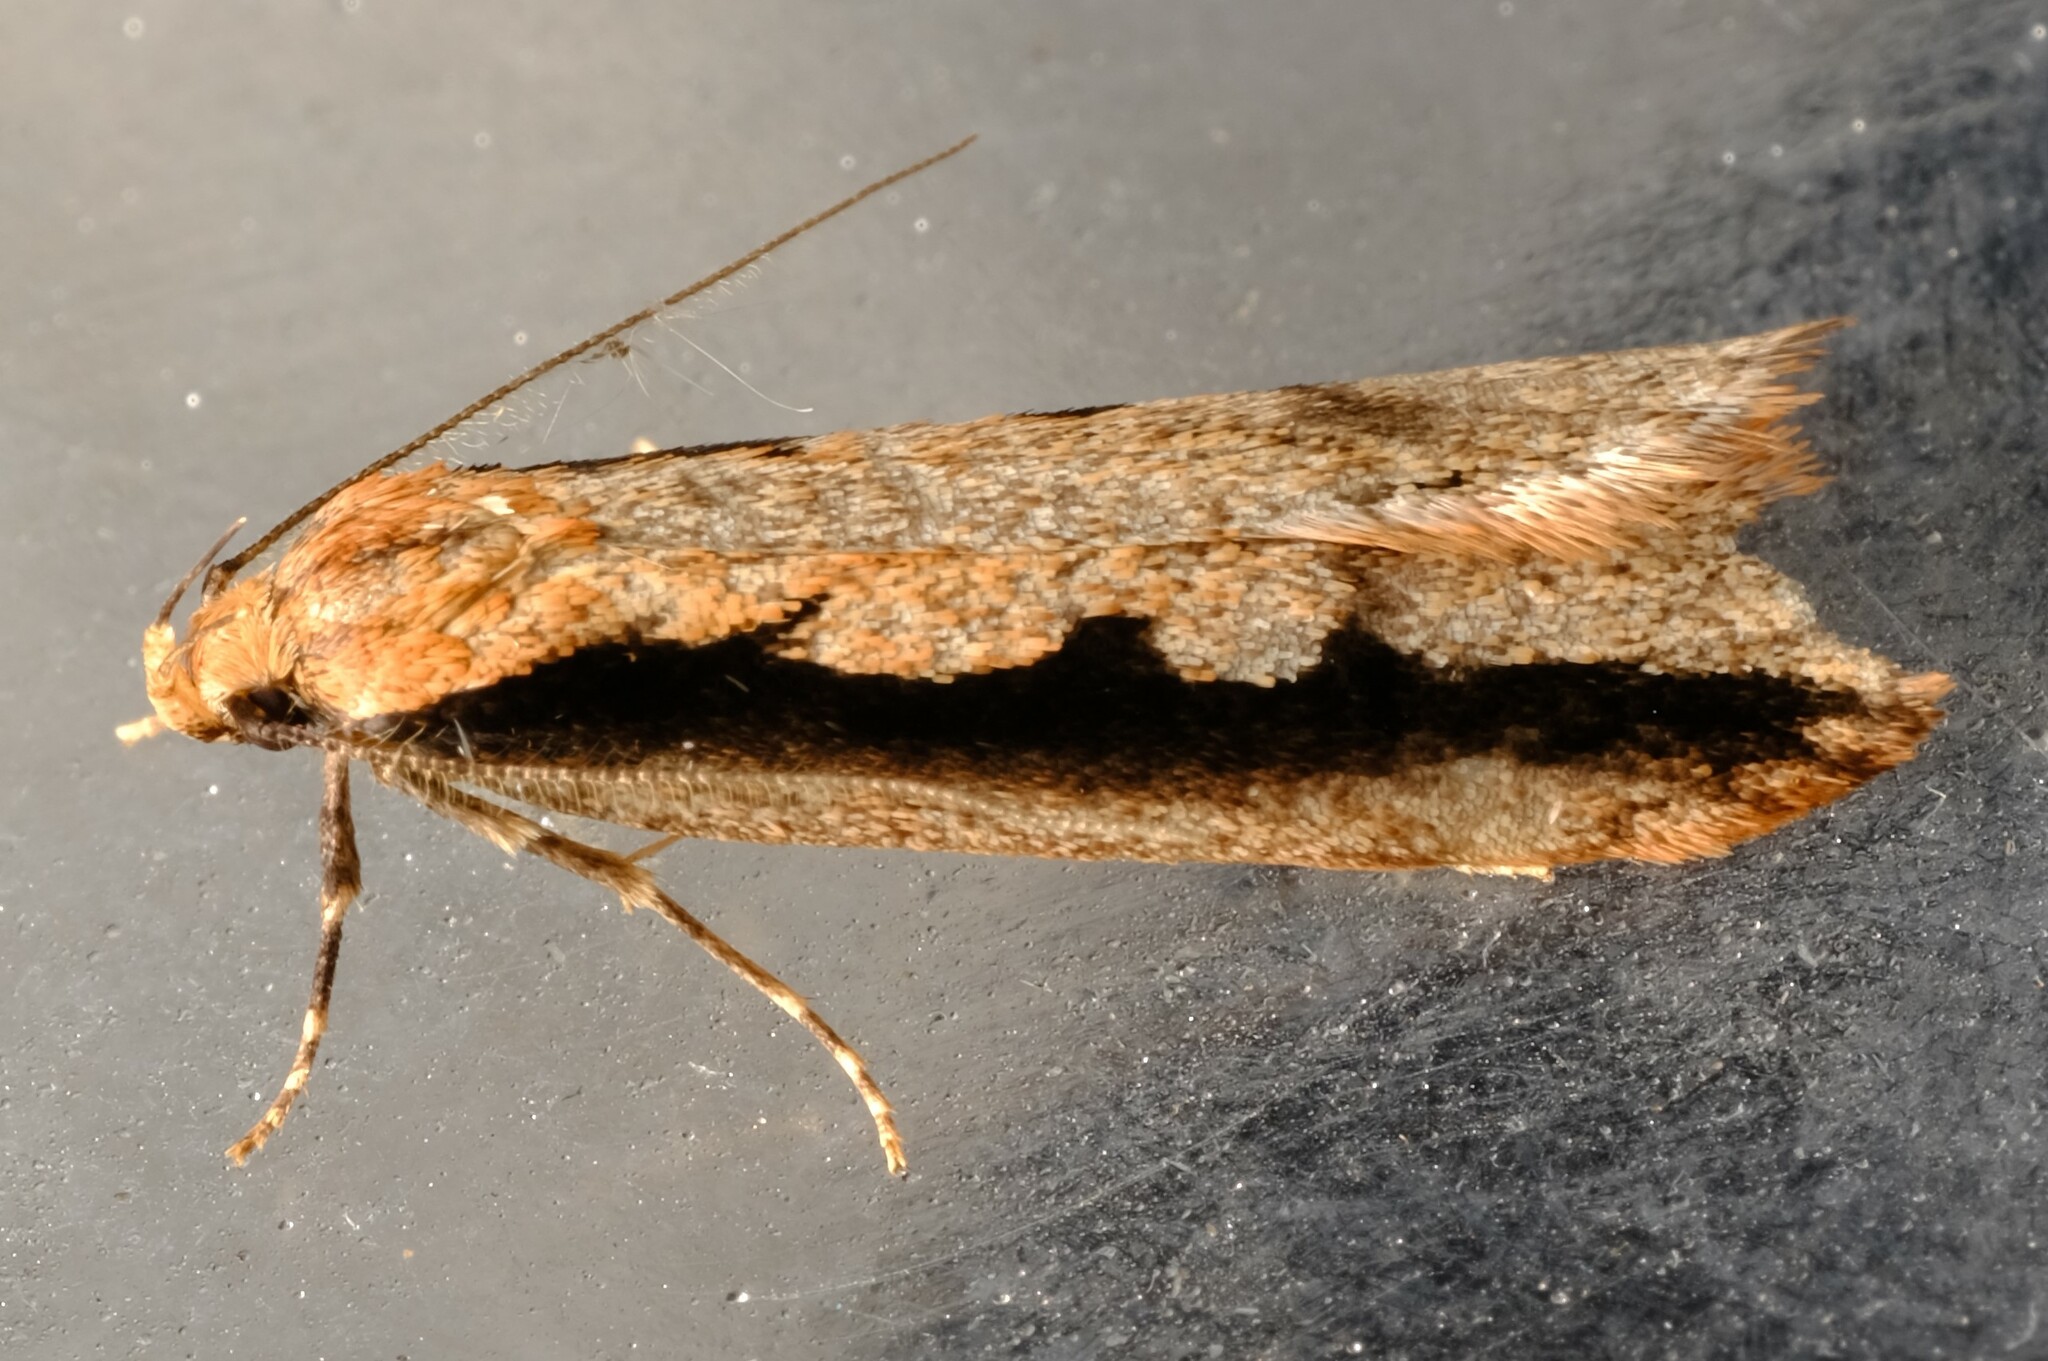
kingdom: Animalia
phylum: Arthropoda
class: Insecta
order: Lepidoptera
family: Oecophoridae
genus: Leptocroca
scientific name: Leptocroca sanguinolenta
